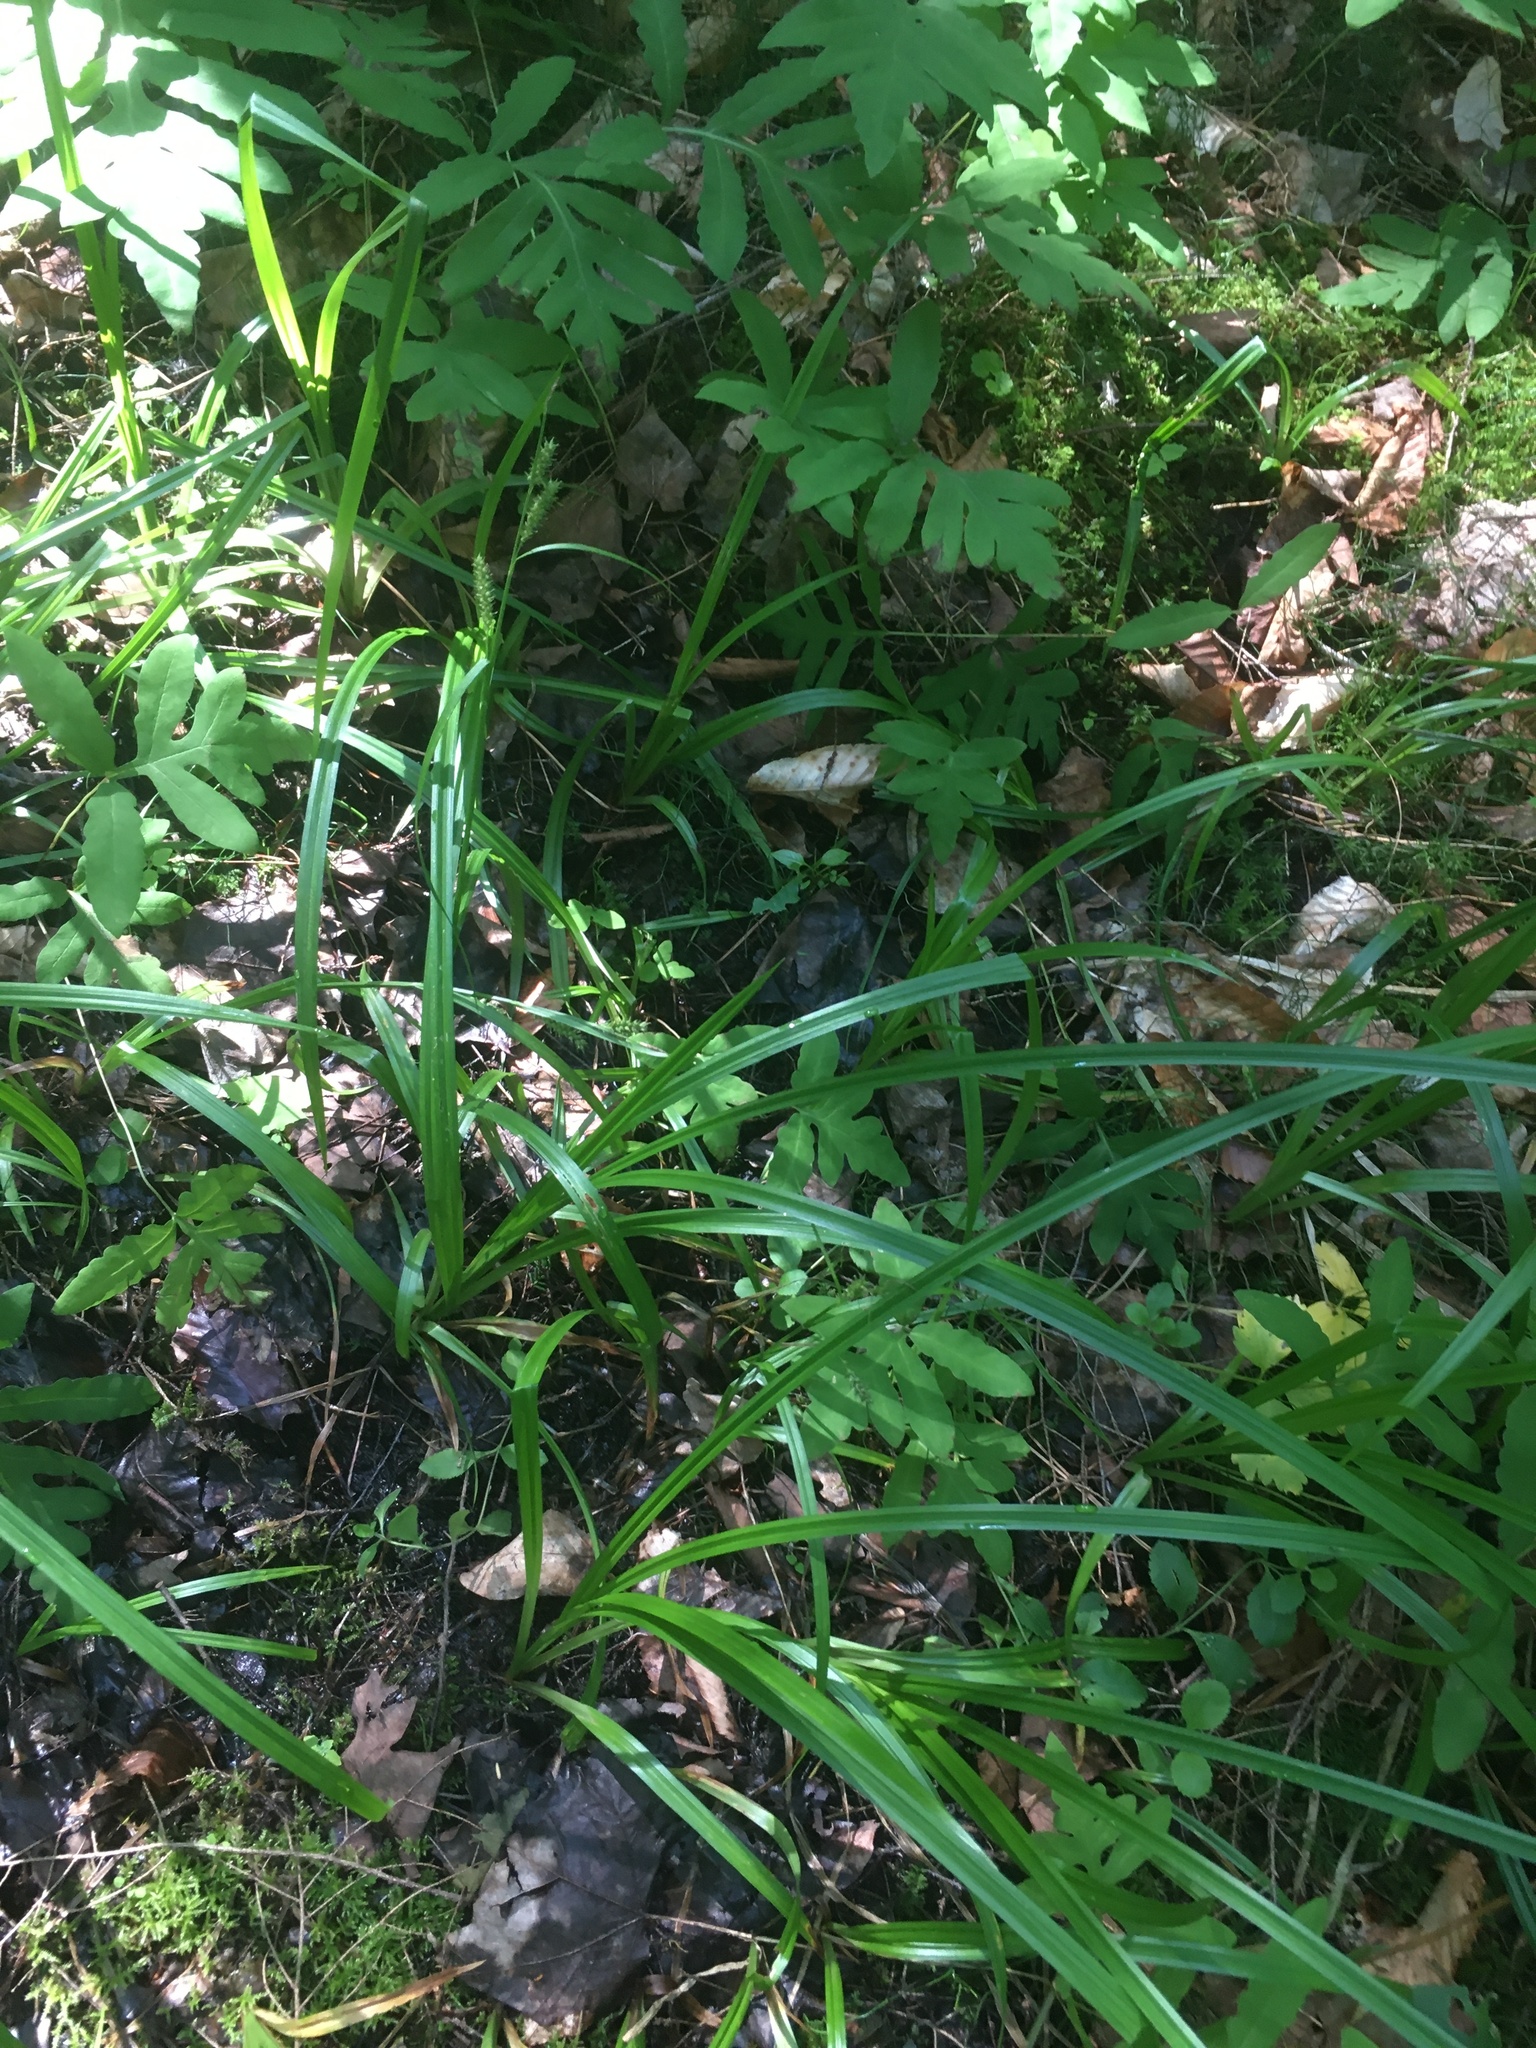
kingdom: Plantae
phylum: Tracheophyta
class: Liliopsida
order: Poales
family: Cyperaceae
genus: Carex
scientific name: Carex scabrata
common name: Eastern rough sedge
